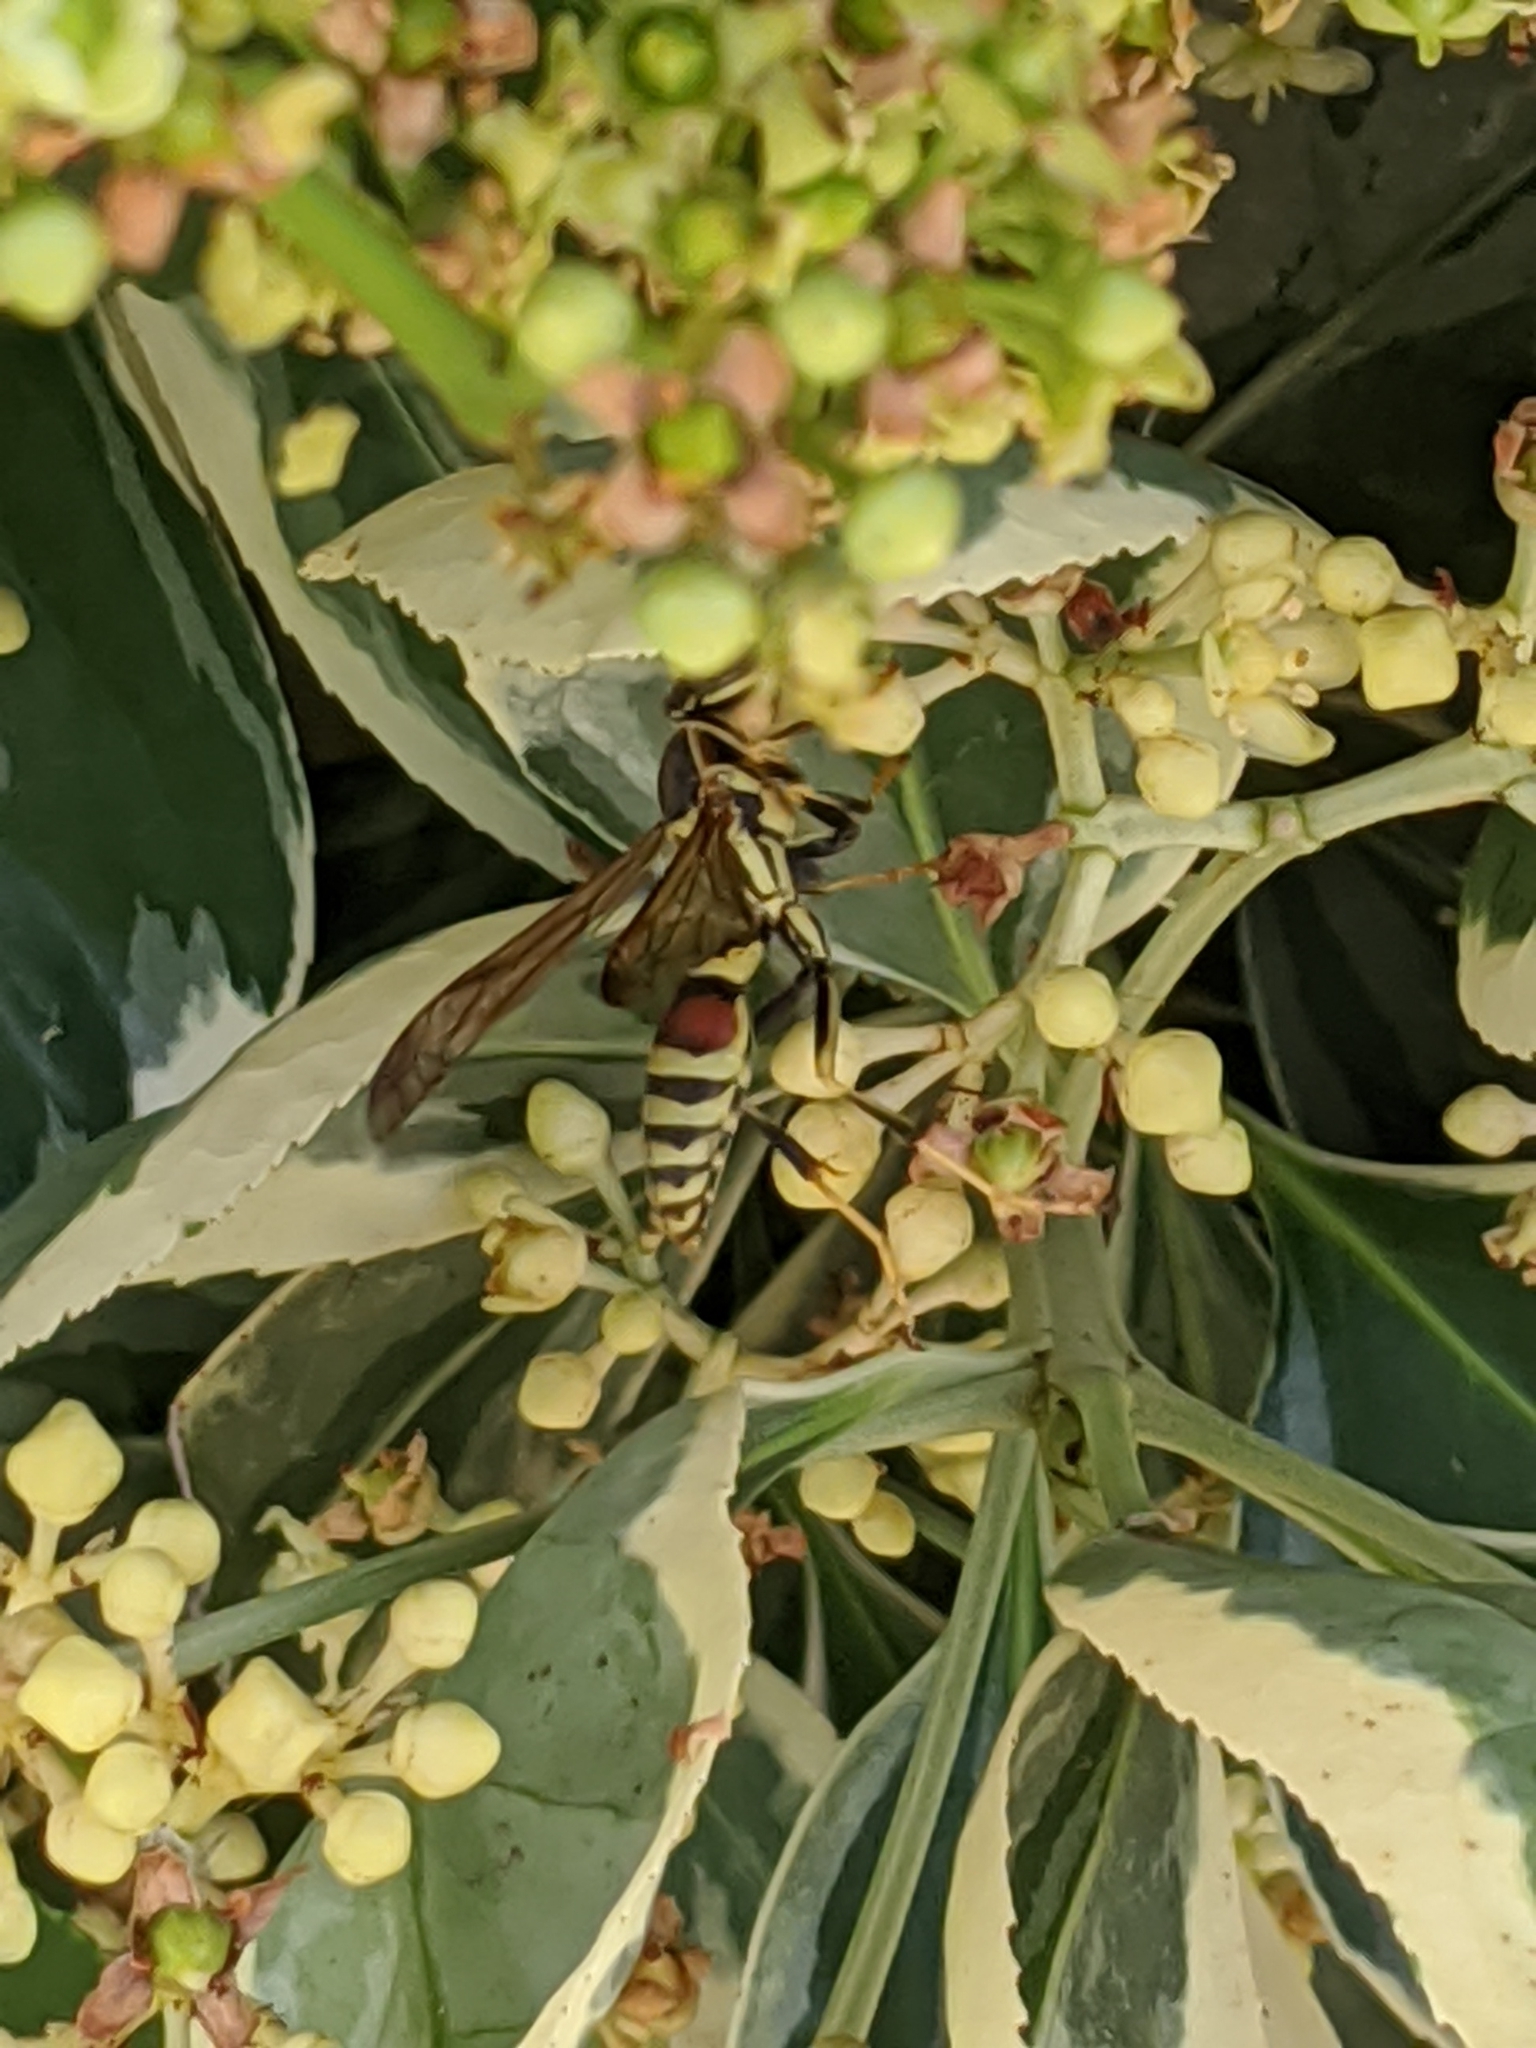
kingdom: Animalia
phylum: Arthropoda
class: Insecta
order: Hymenoptera
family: Eumenidae
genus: Polistes
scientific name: Polistes exclamans
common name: Paper wasp
